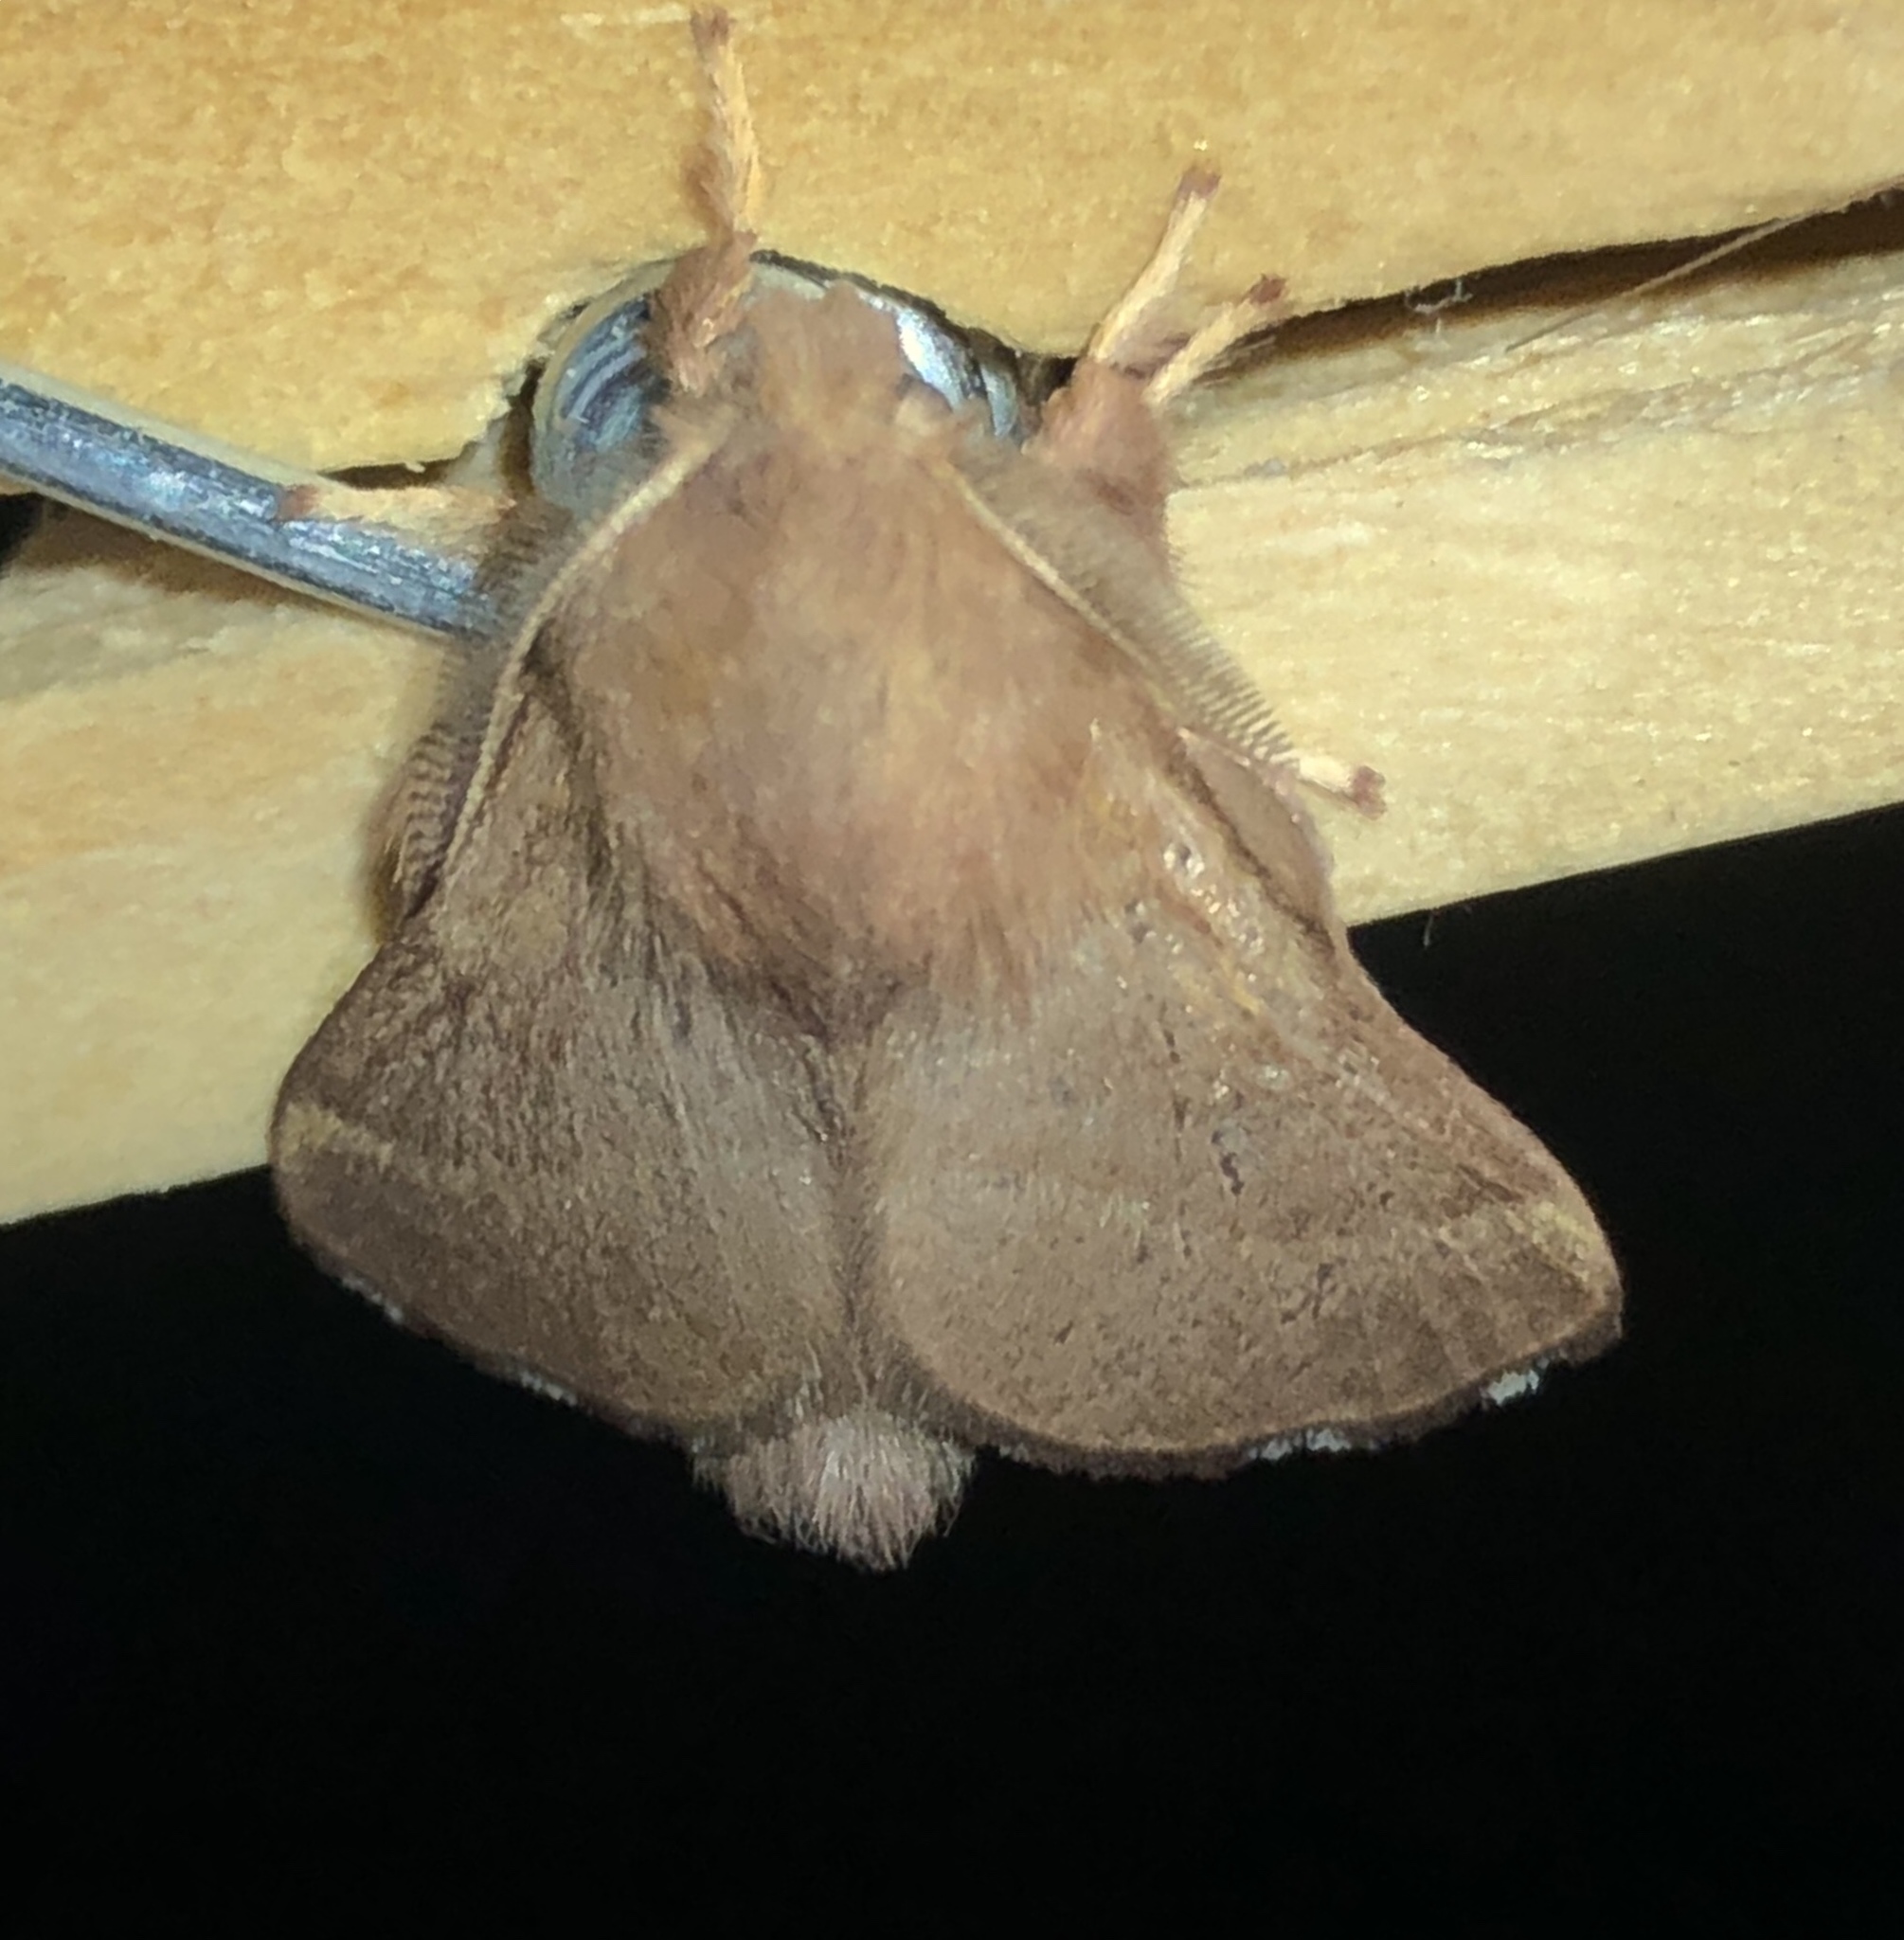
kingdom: Animalia
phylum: Arthropoda
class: Insecta
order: Lepidoptera
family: Lasiocampidae
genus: Malacosoma
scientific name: Malacosoma disstria
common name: Forest tent caterpillar
